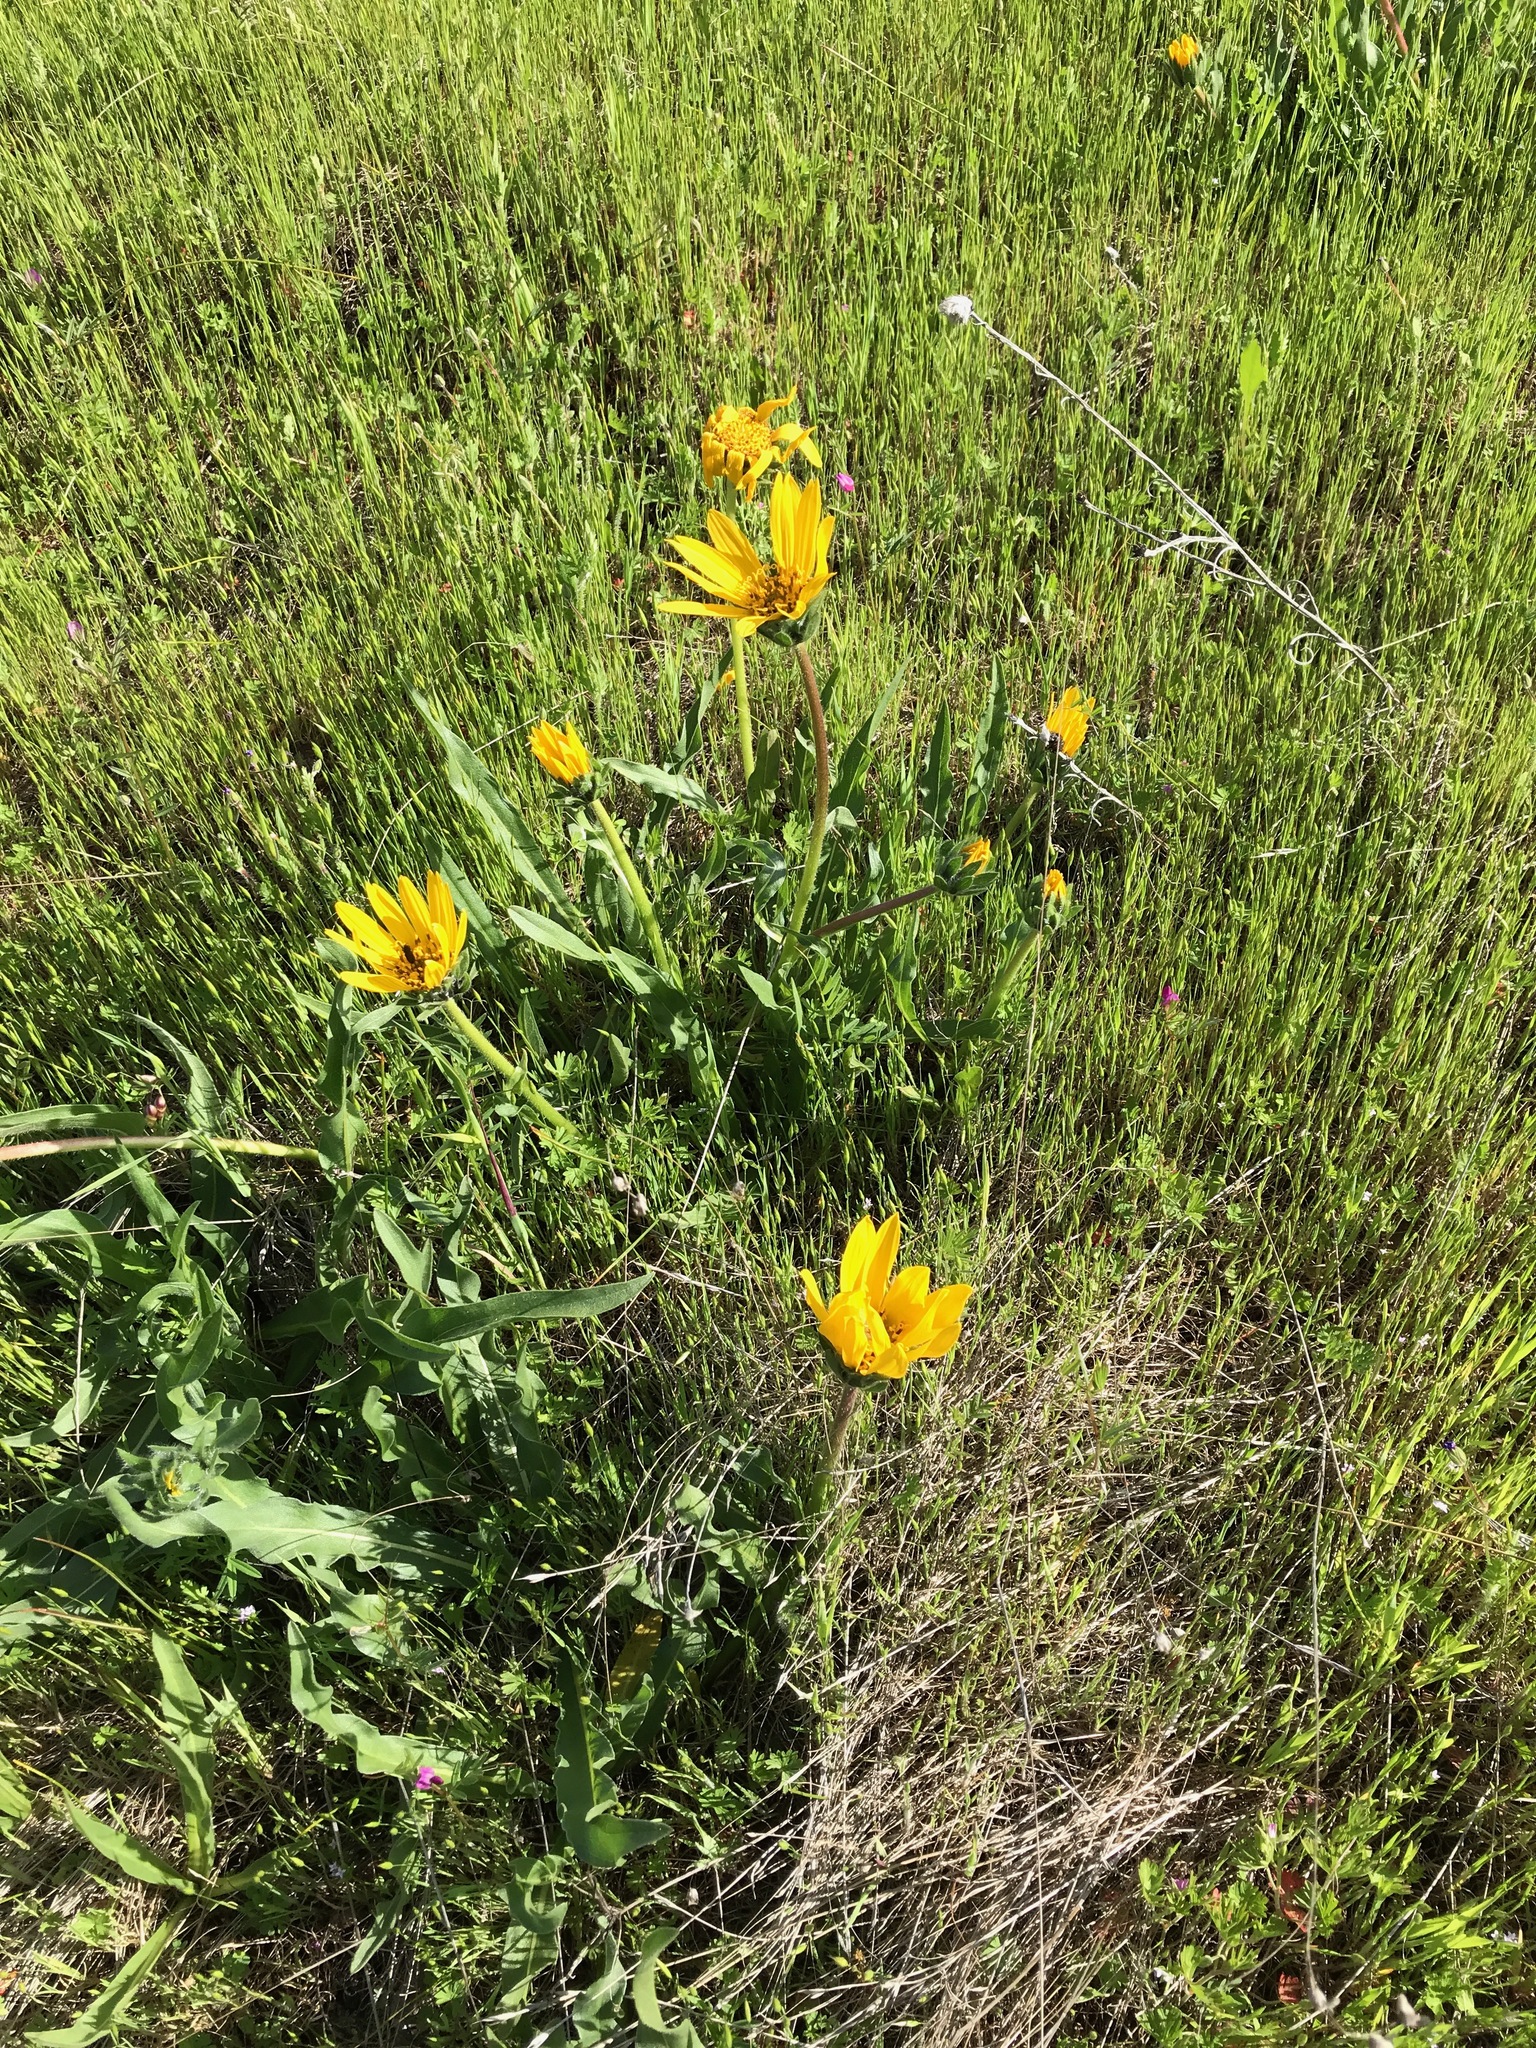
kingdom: Plantae
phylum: Tracheophyta
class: Magnoliopsida
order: Asterales
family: Asteraceae
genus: Wyethia
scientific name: Wyethia angustifolia
